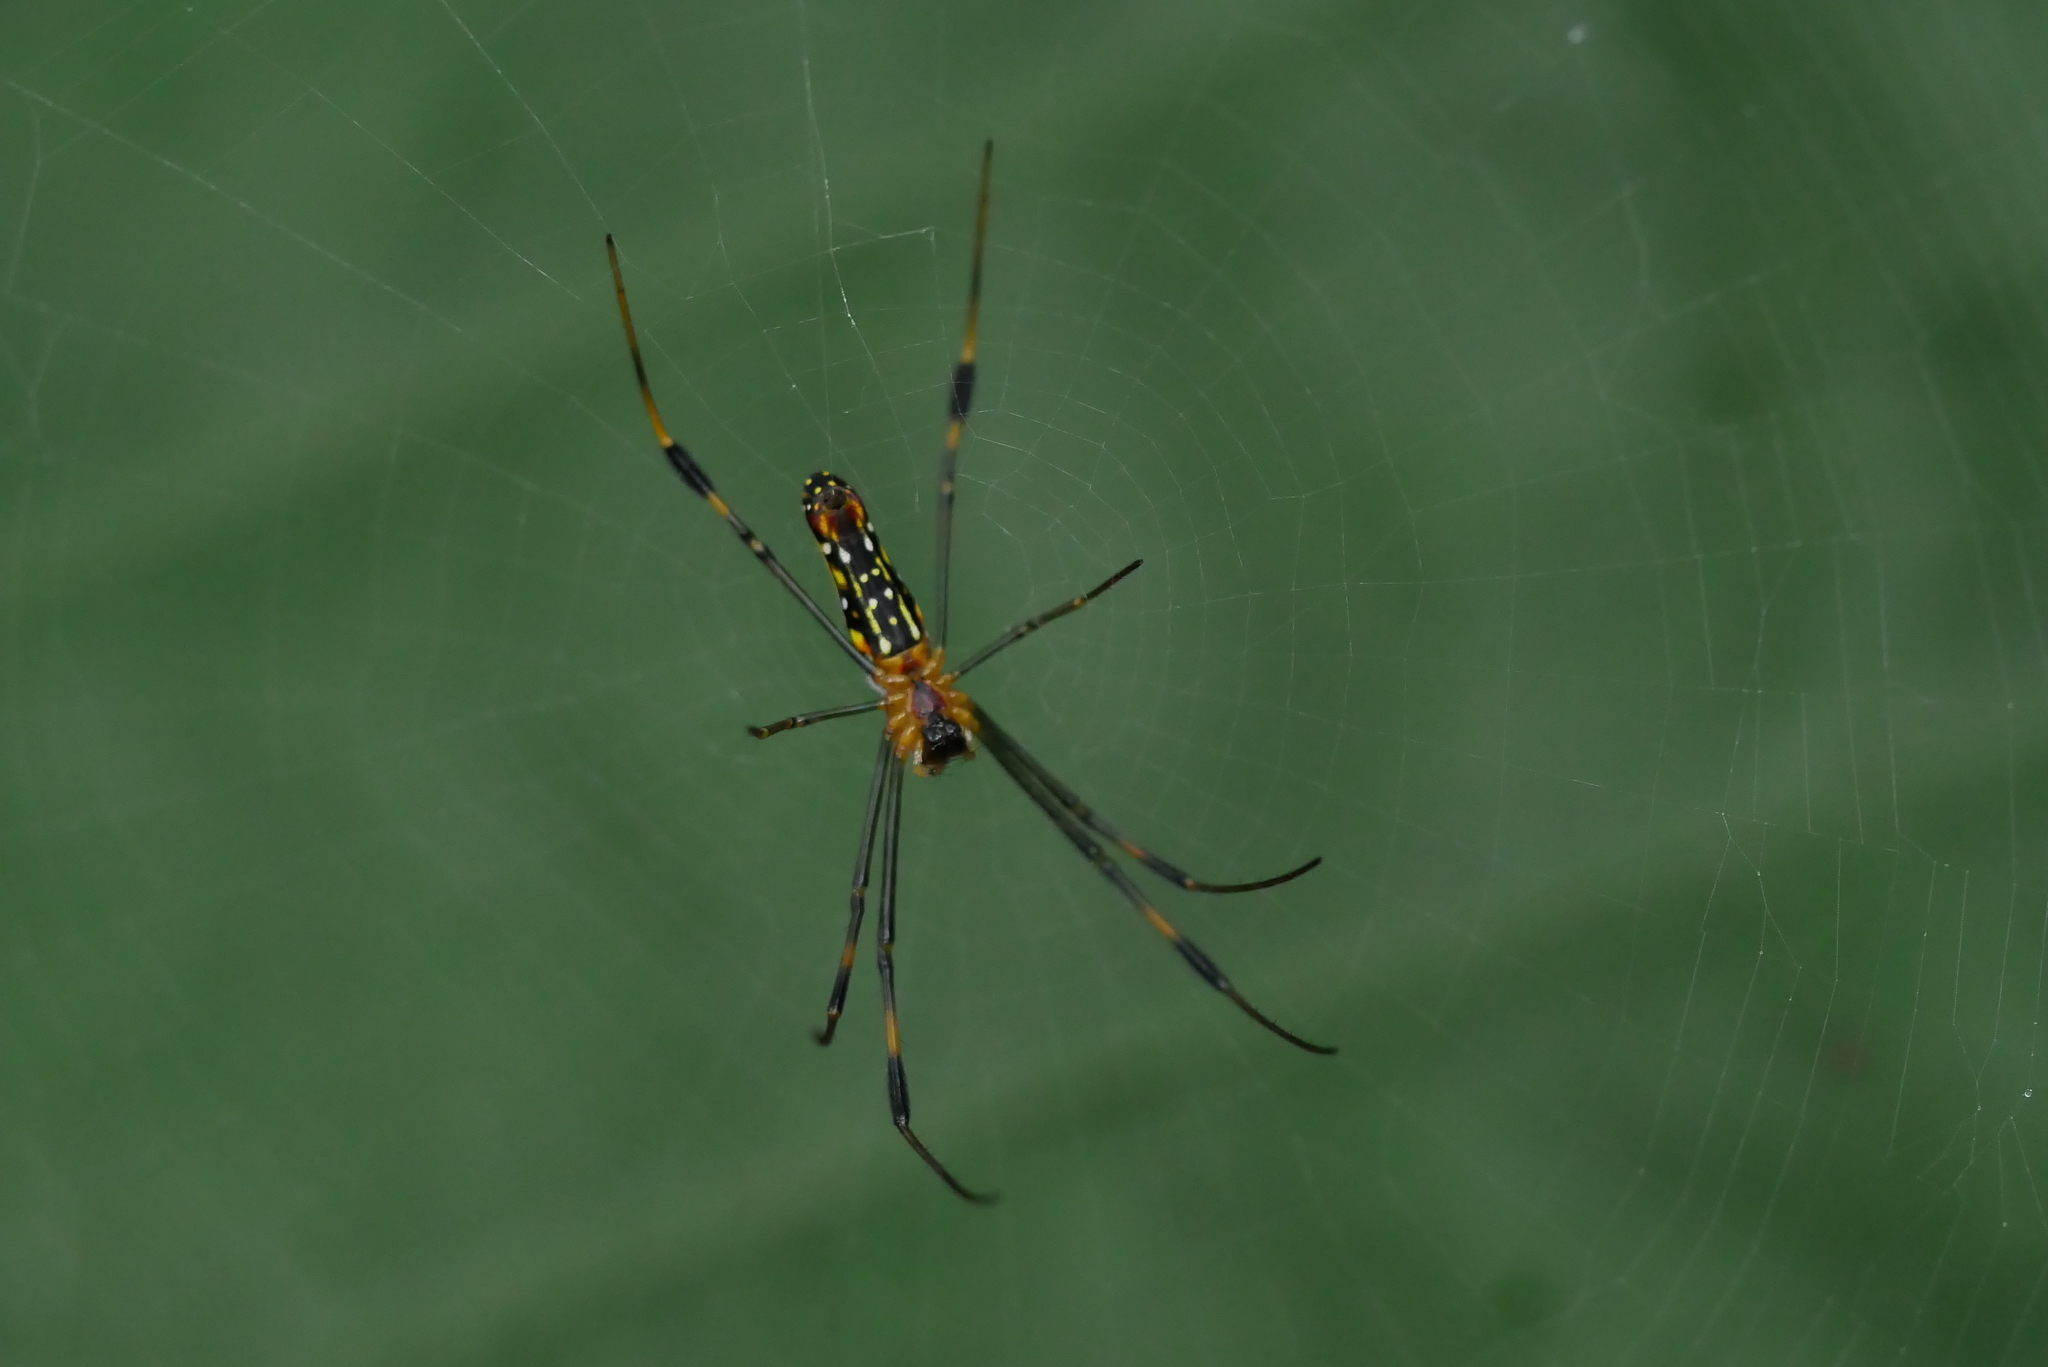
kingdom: Animalia
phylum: Arthropoda
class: Arachnida
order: Araneae
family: Araneidae
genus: Nephila
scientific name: Nephila pilipes
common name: Giant golden orb weaver
